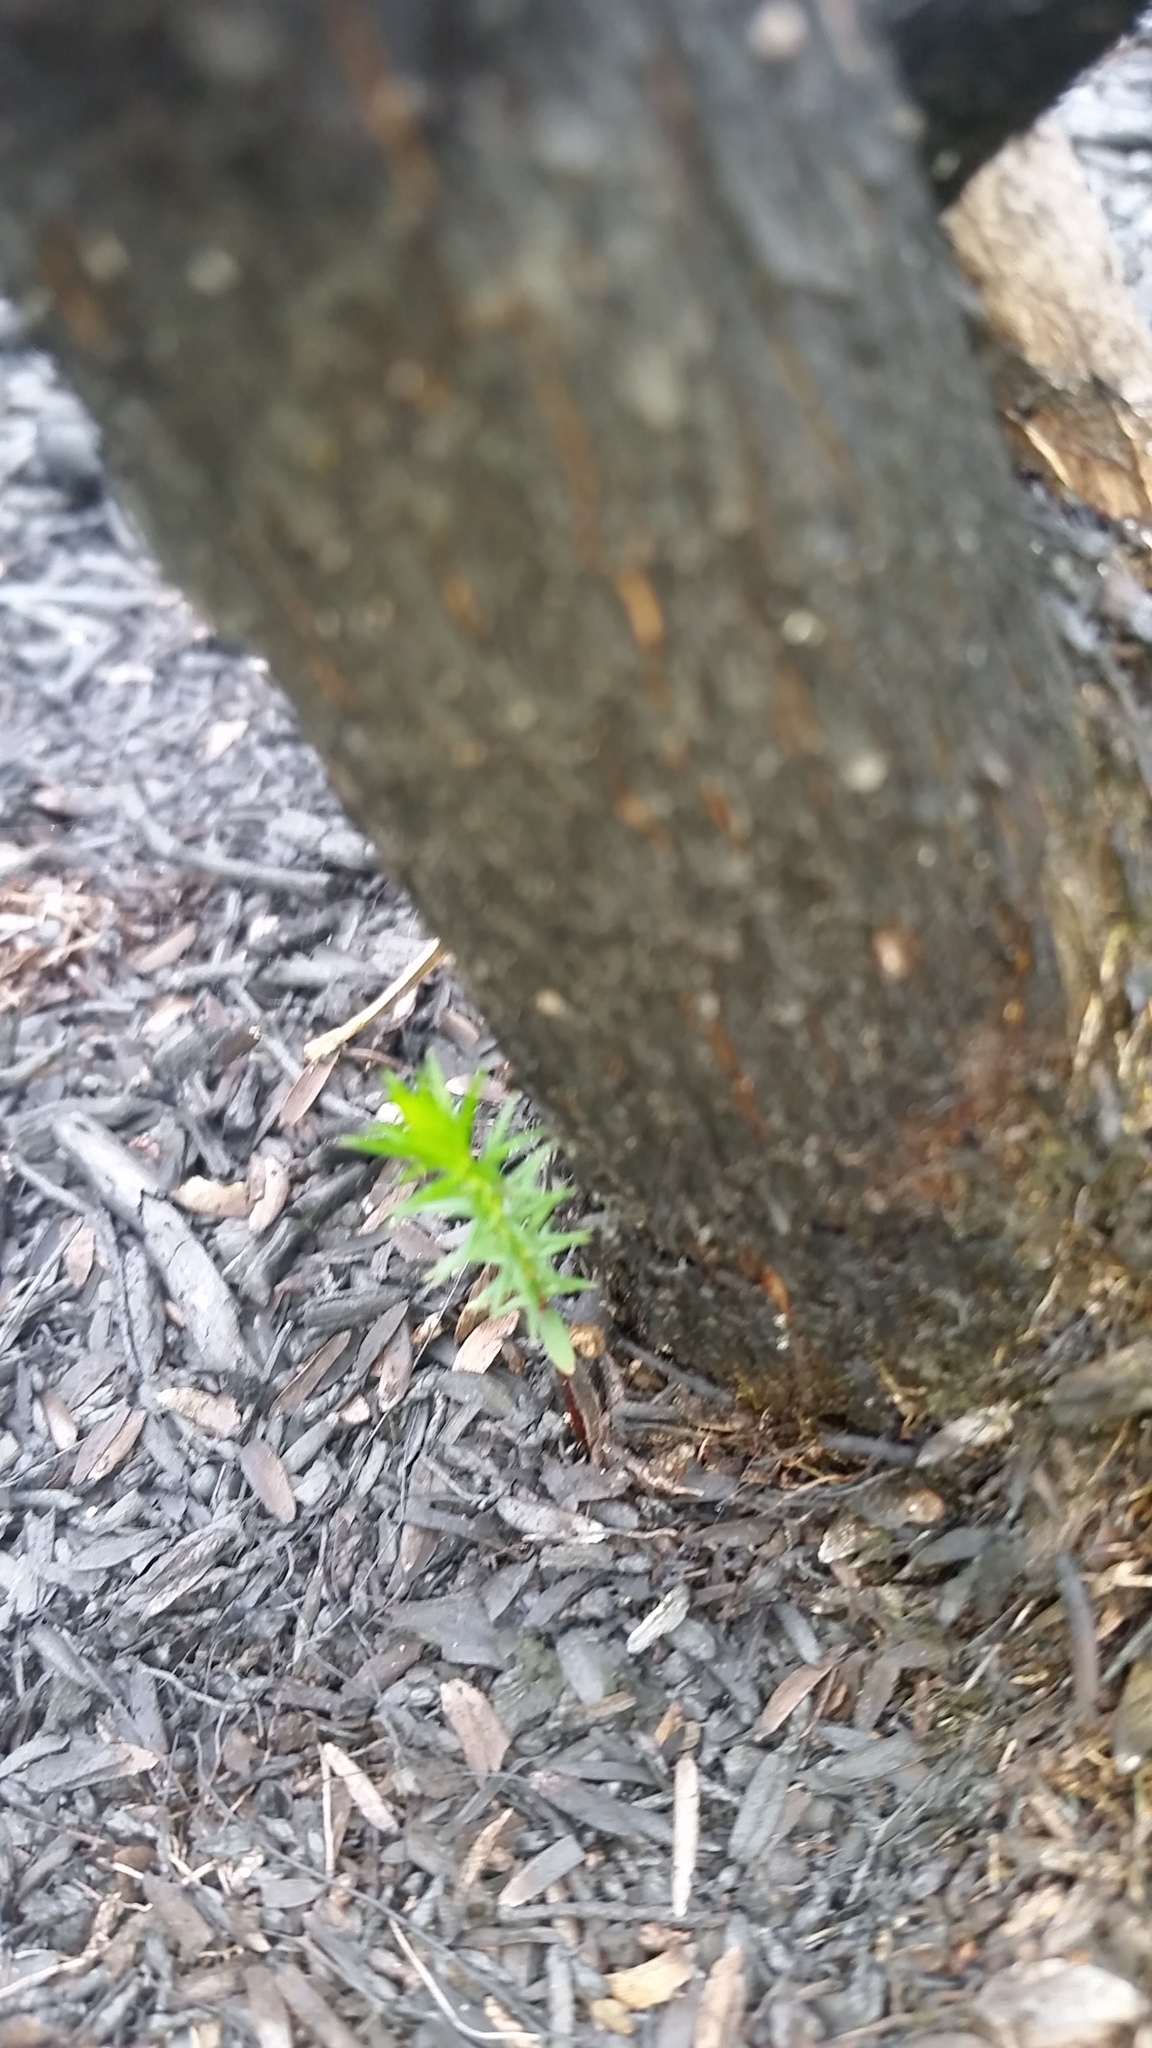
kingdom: Plantae
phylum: Tracheophyta
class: Magnoliopsida
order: Ericales
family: Ericaceae
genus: Leptecophylla
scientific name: Leptecophylla tameiameiae
